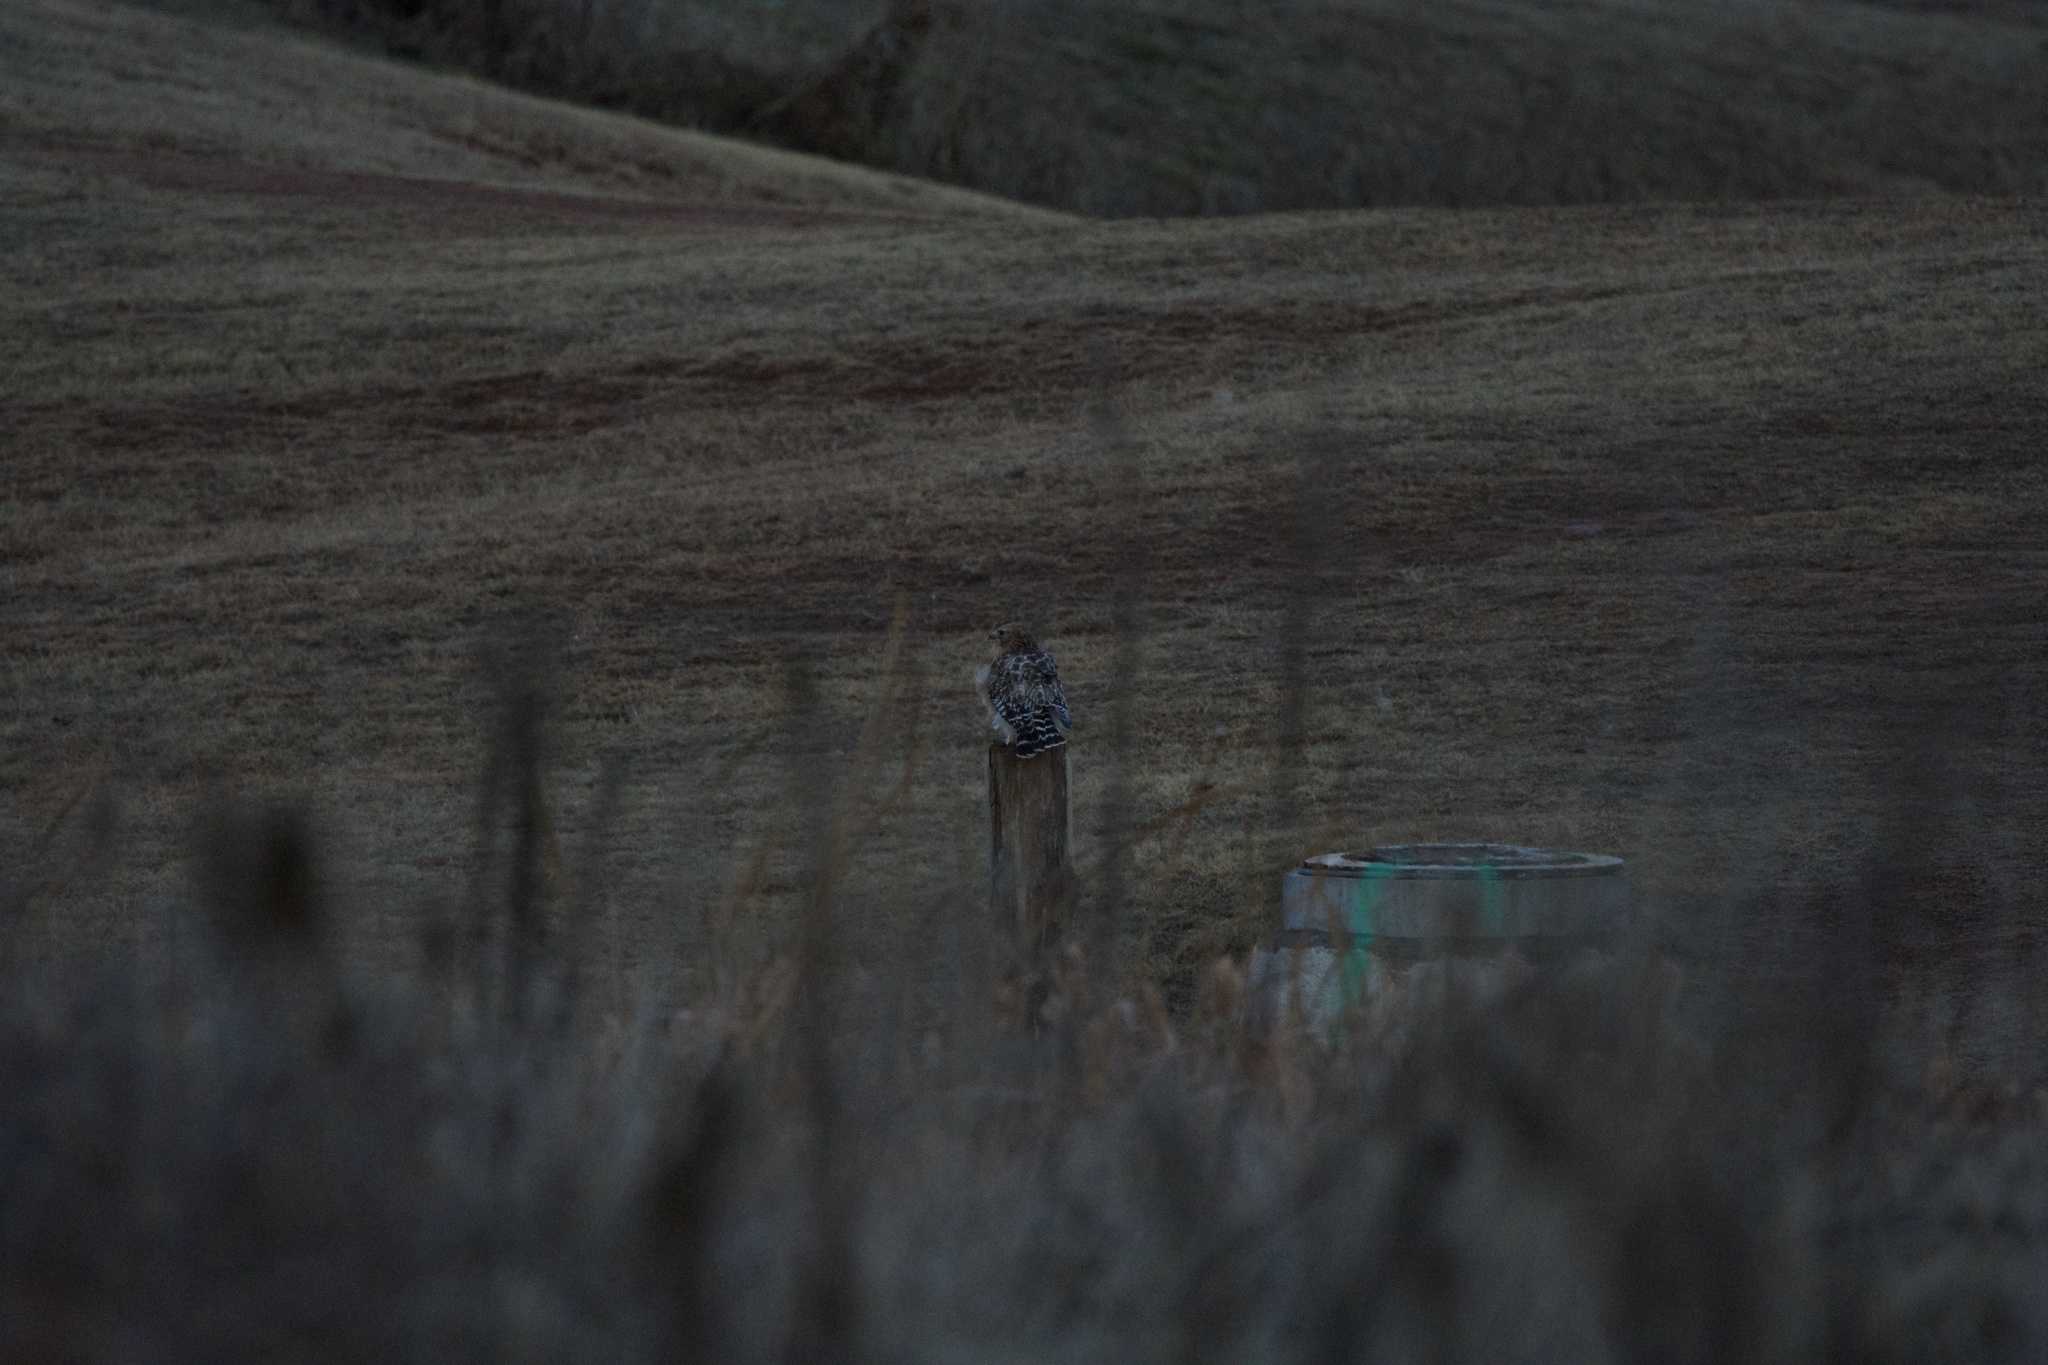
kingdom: Animalia
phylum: Chordata
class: Aves
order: Accipitriformes
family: Accipitridae
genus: Buteo
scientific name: Buteo lineatus
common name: Red-shouldered hawk
